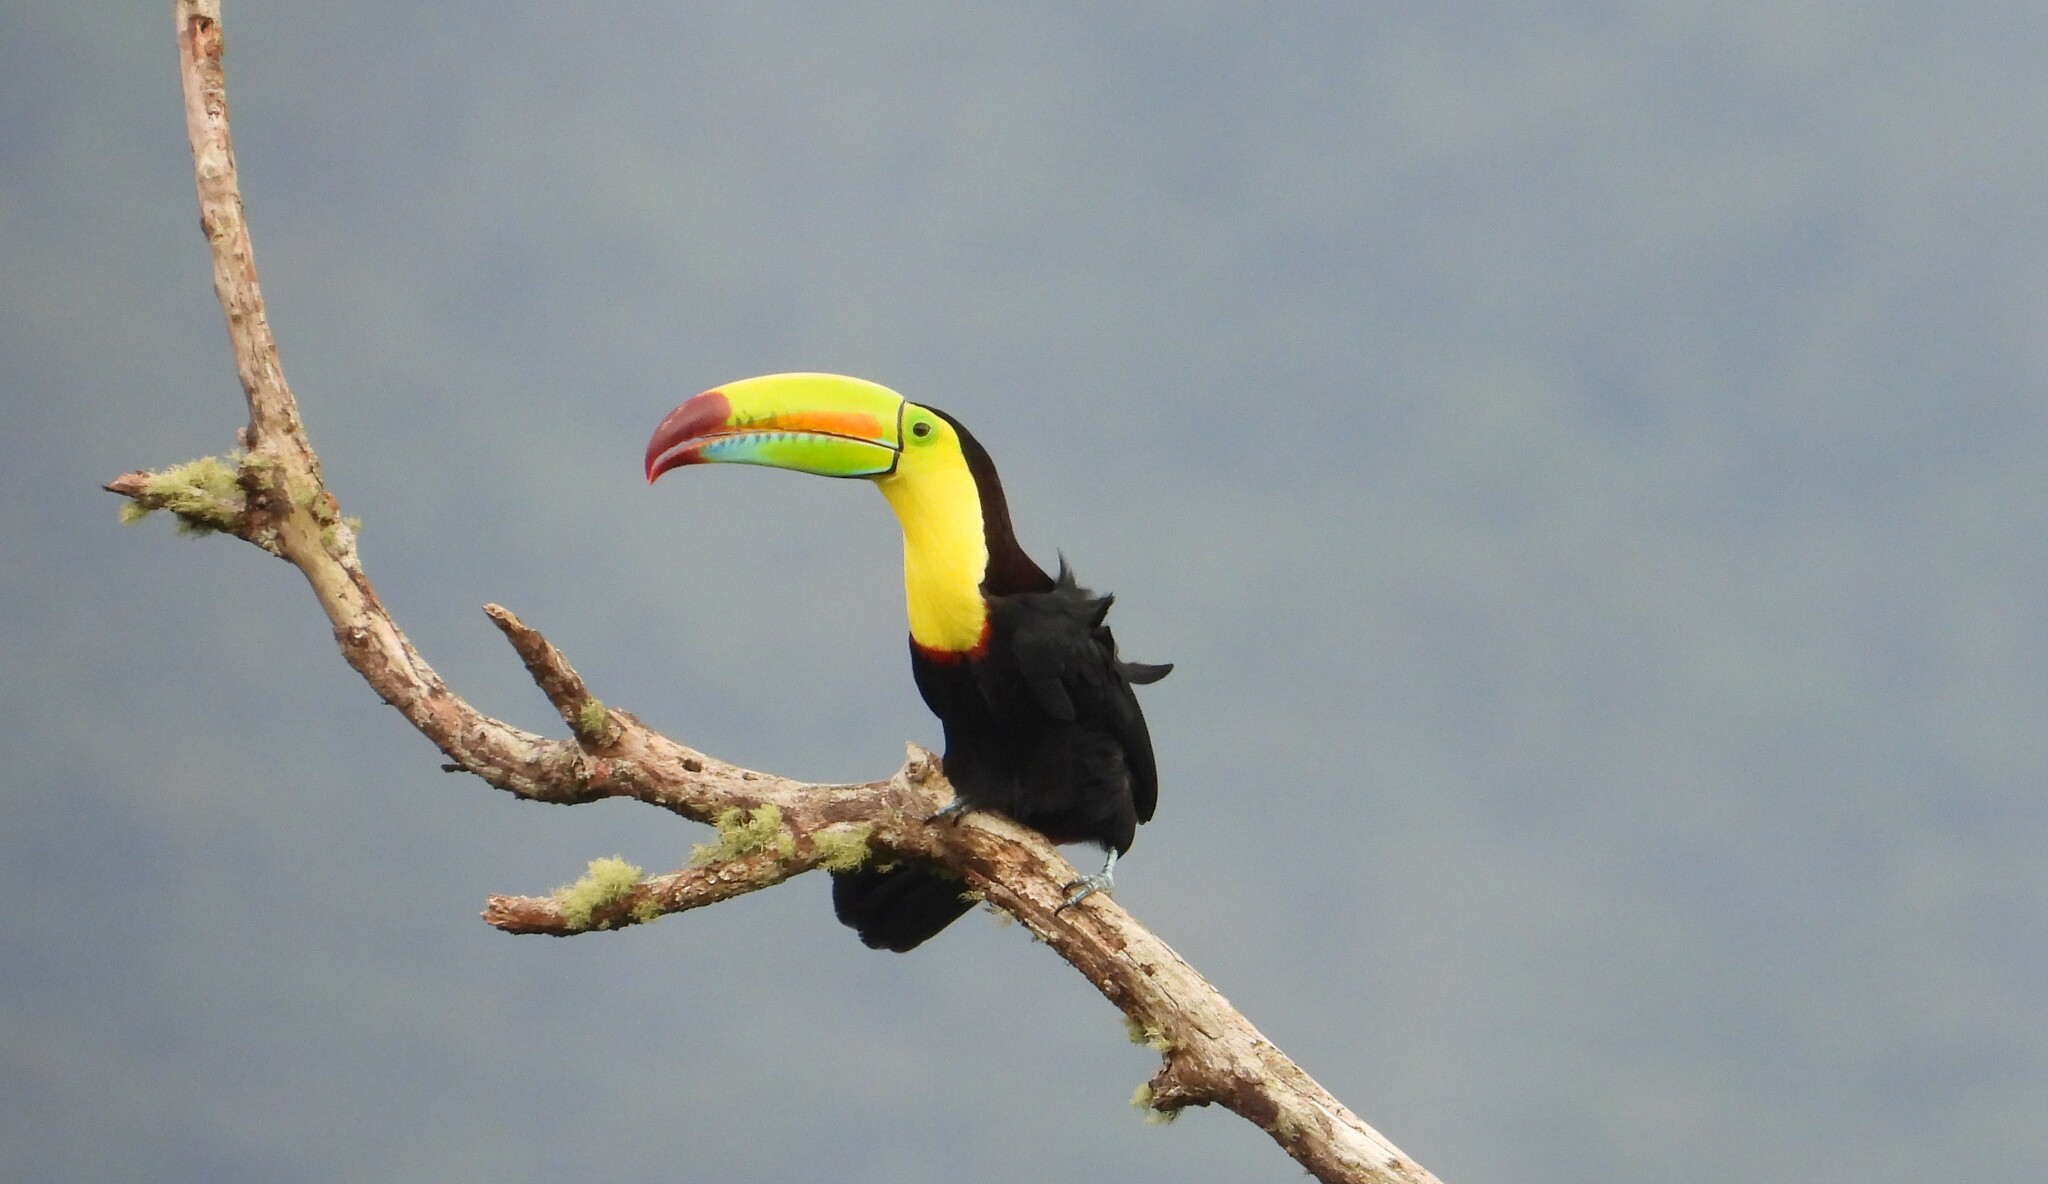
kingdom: Animalia
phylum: Chordata
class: Aves
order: Piciformes
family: Ramphastidae
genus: Ramphastos
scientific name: Ramphastos sulfuratus
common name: Keel-billed toucan
